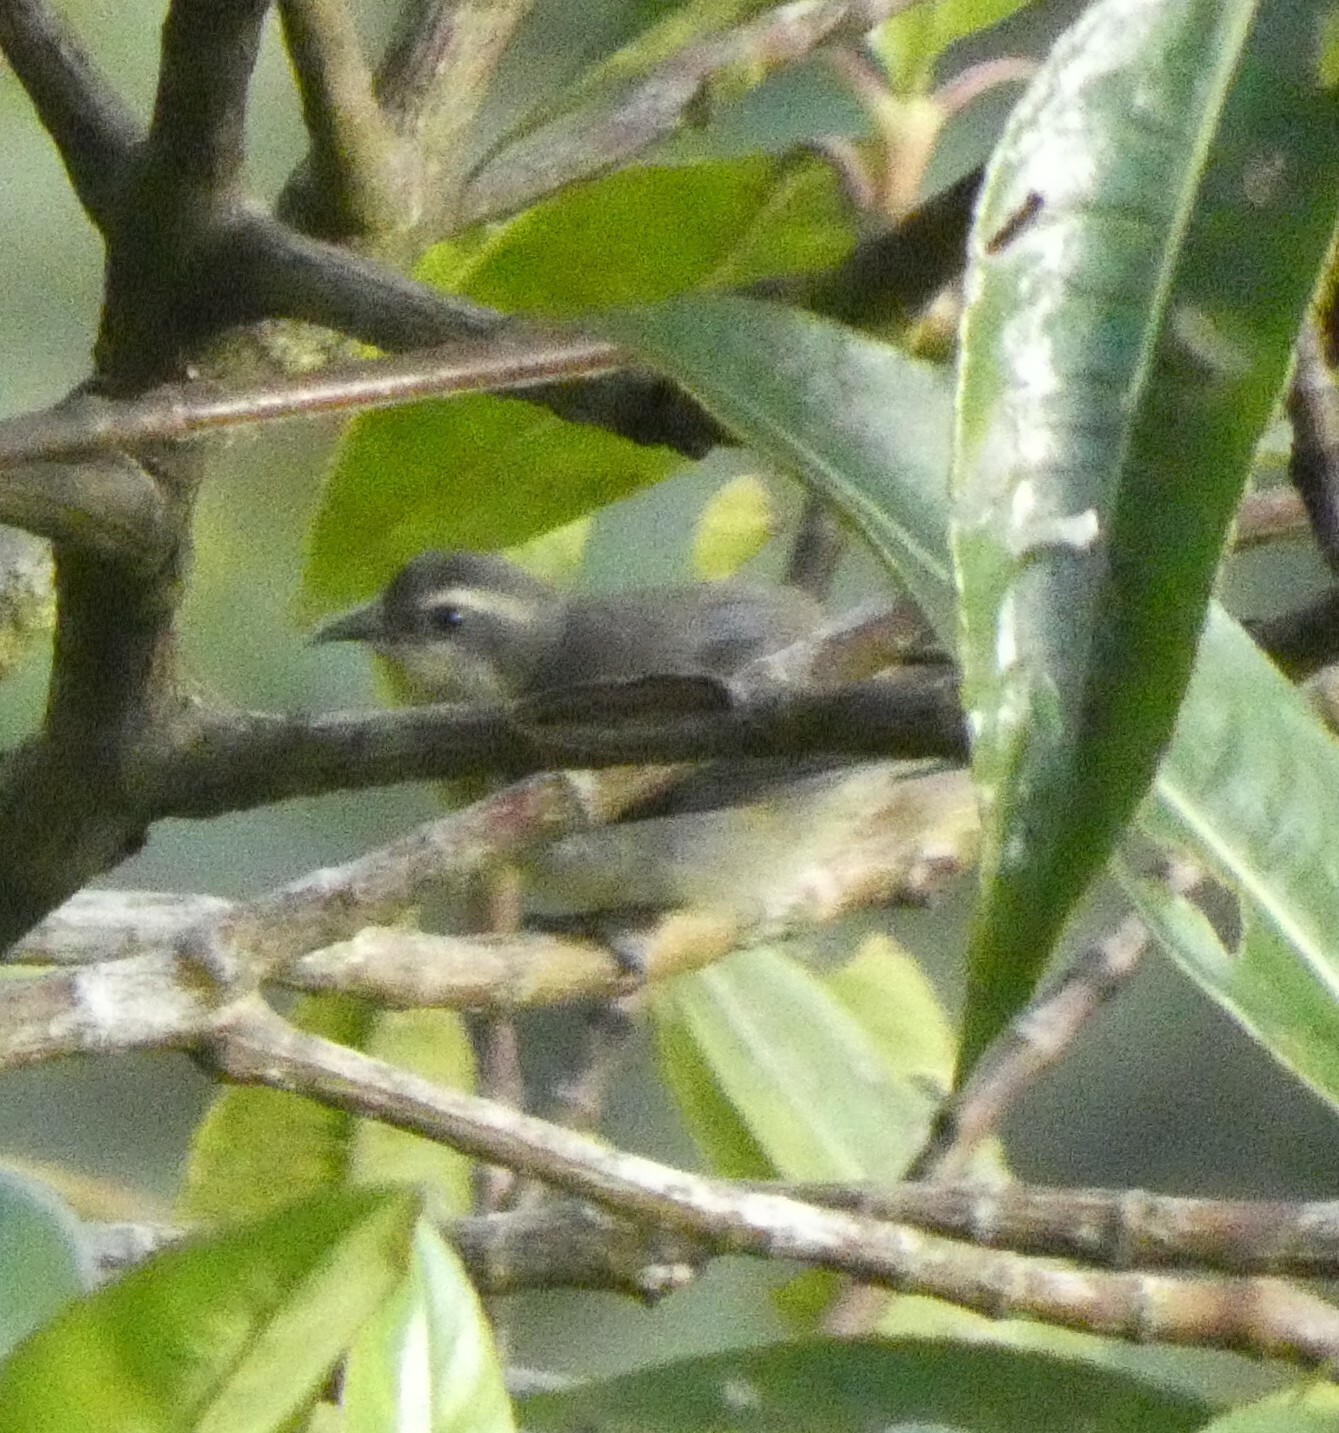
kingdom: Animalia
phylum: Chordata
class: Aves
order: Passeriformes
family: Thraupidae
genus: Coereba
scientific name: Coereba flaveola
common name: Bananaquit
